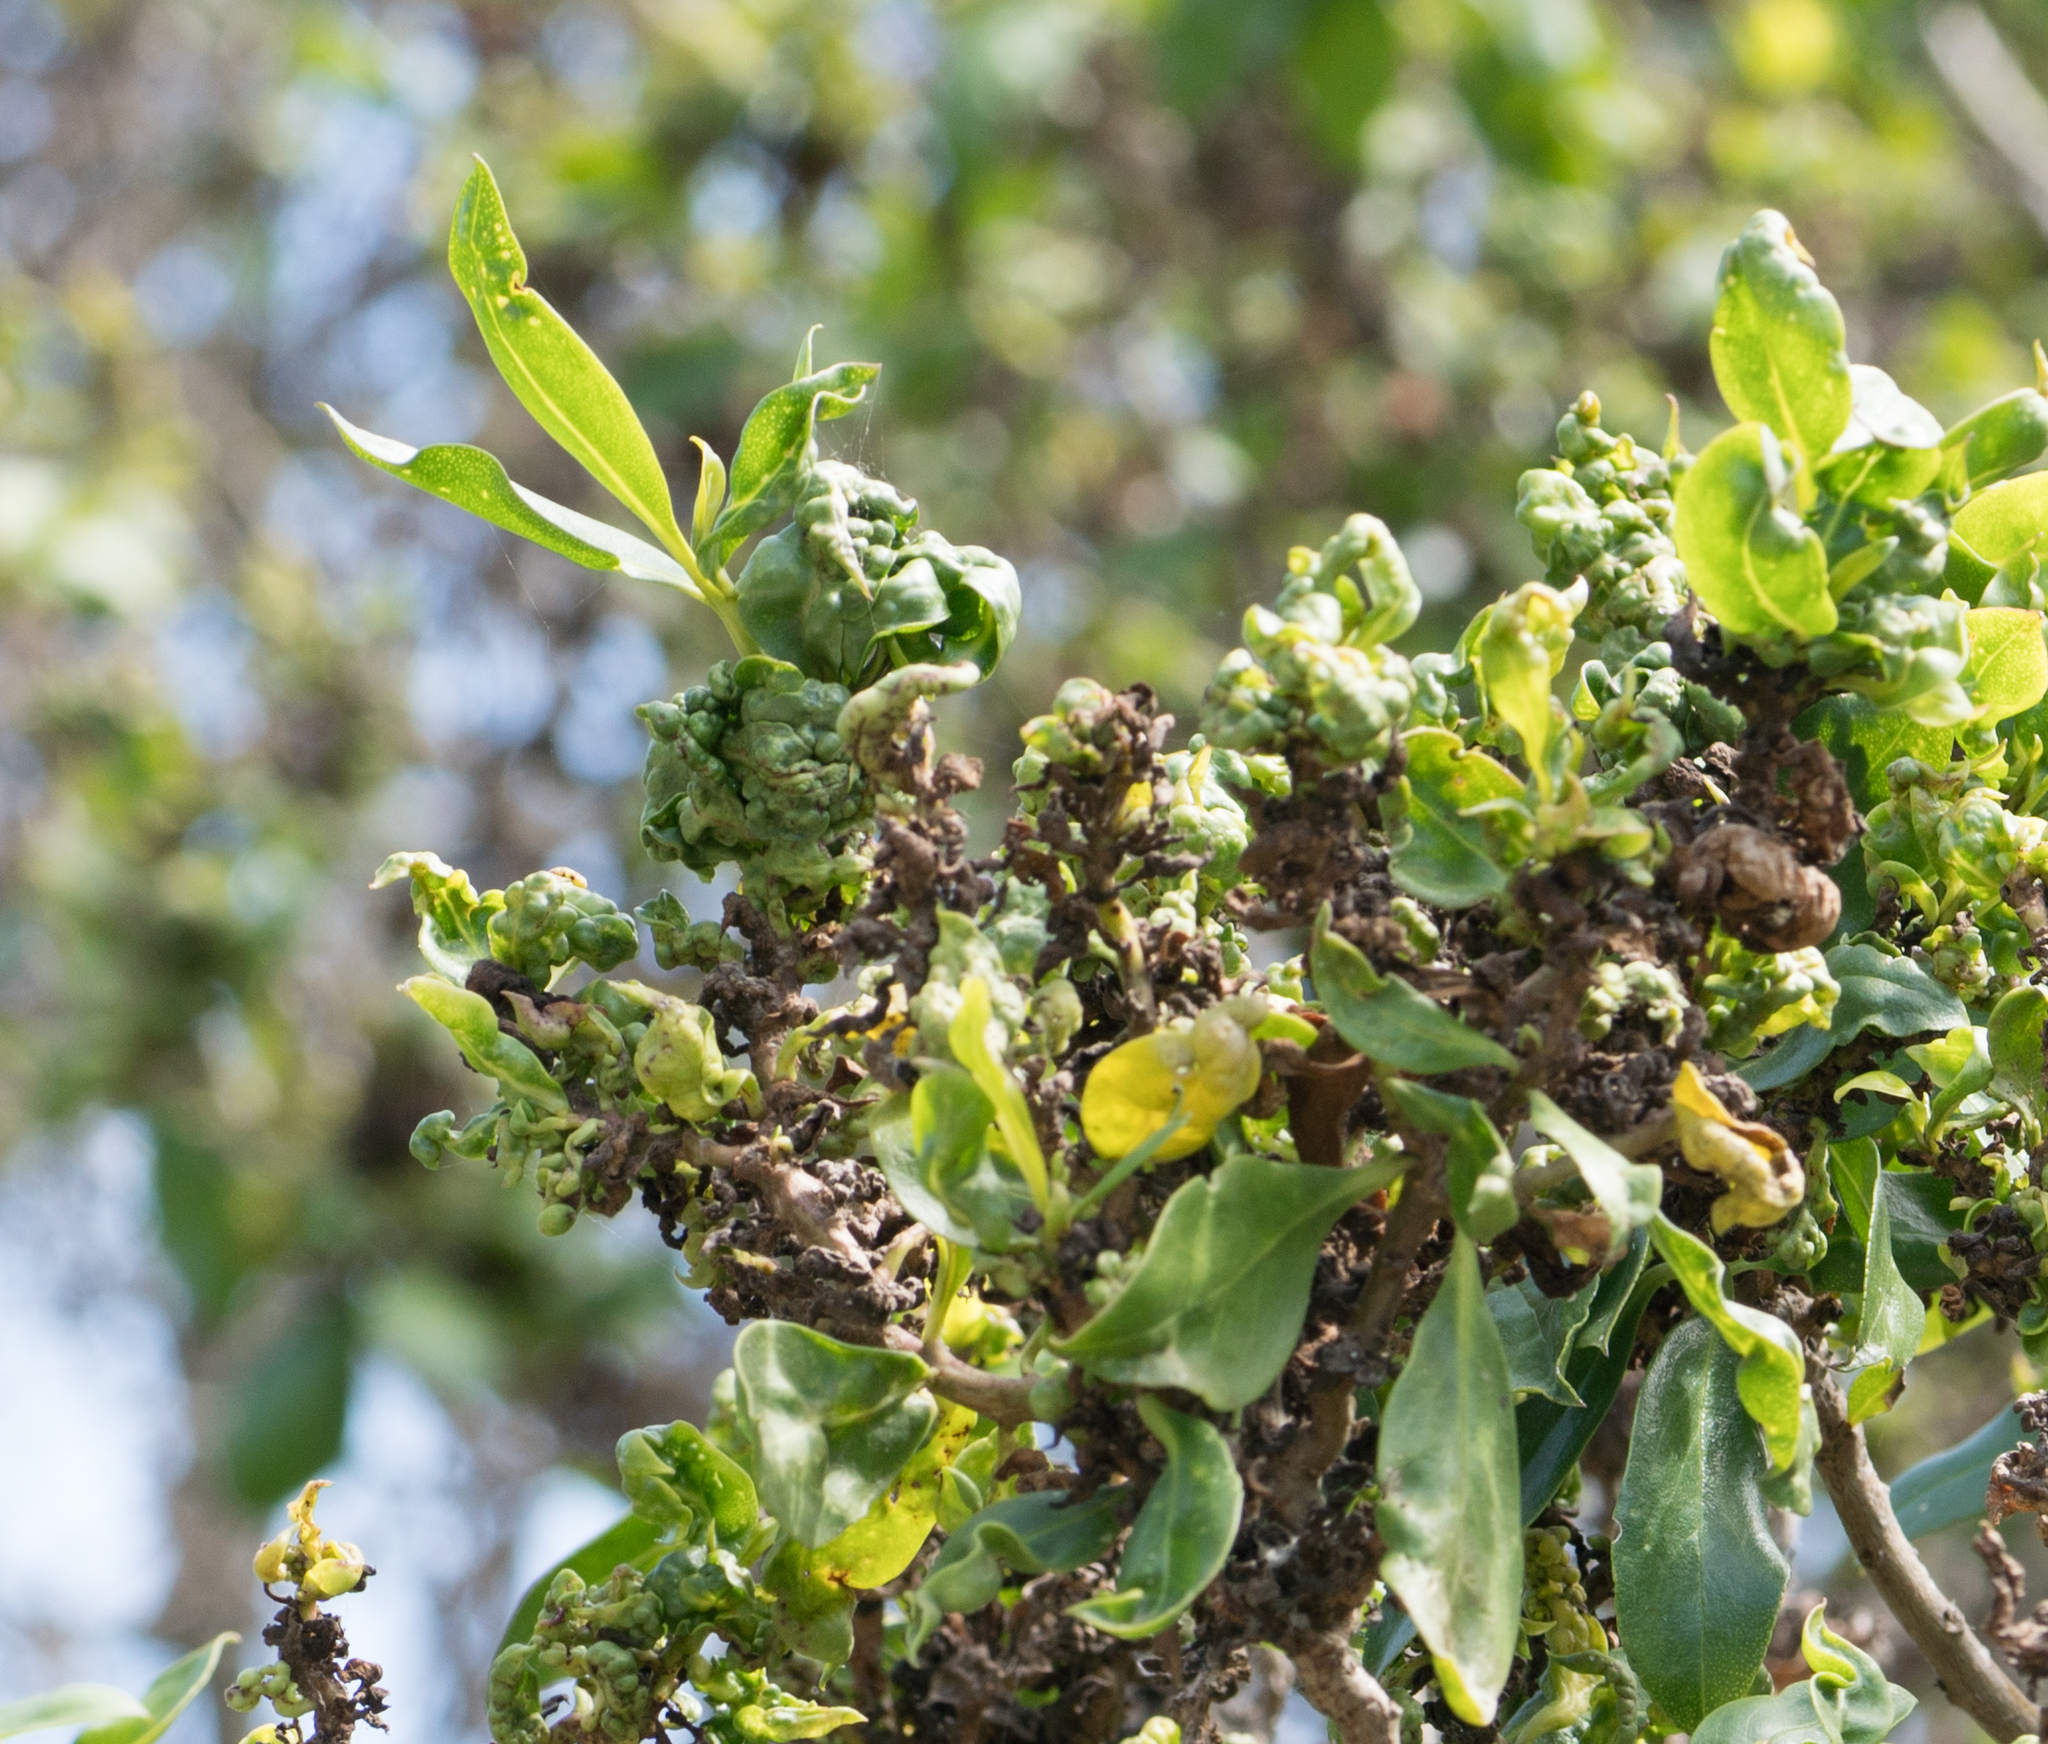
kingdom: Plantae
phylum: Tracheophyta
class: Magnoliopsida
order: Lamiales
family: Scrophulariaceae
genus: Myoporum
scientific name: Myoporum laetum
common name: Ngaio tree
